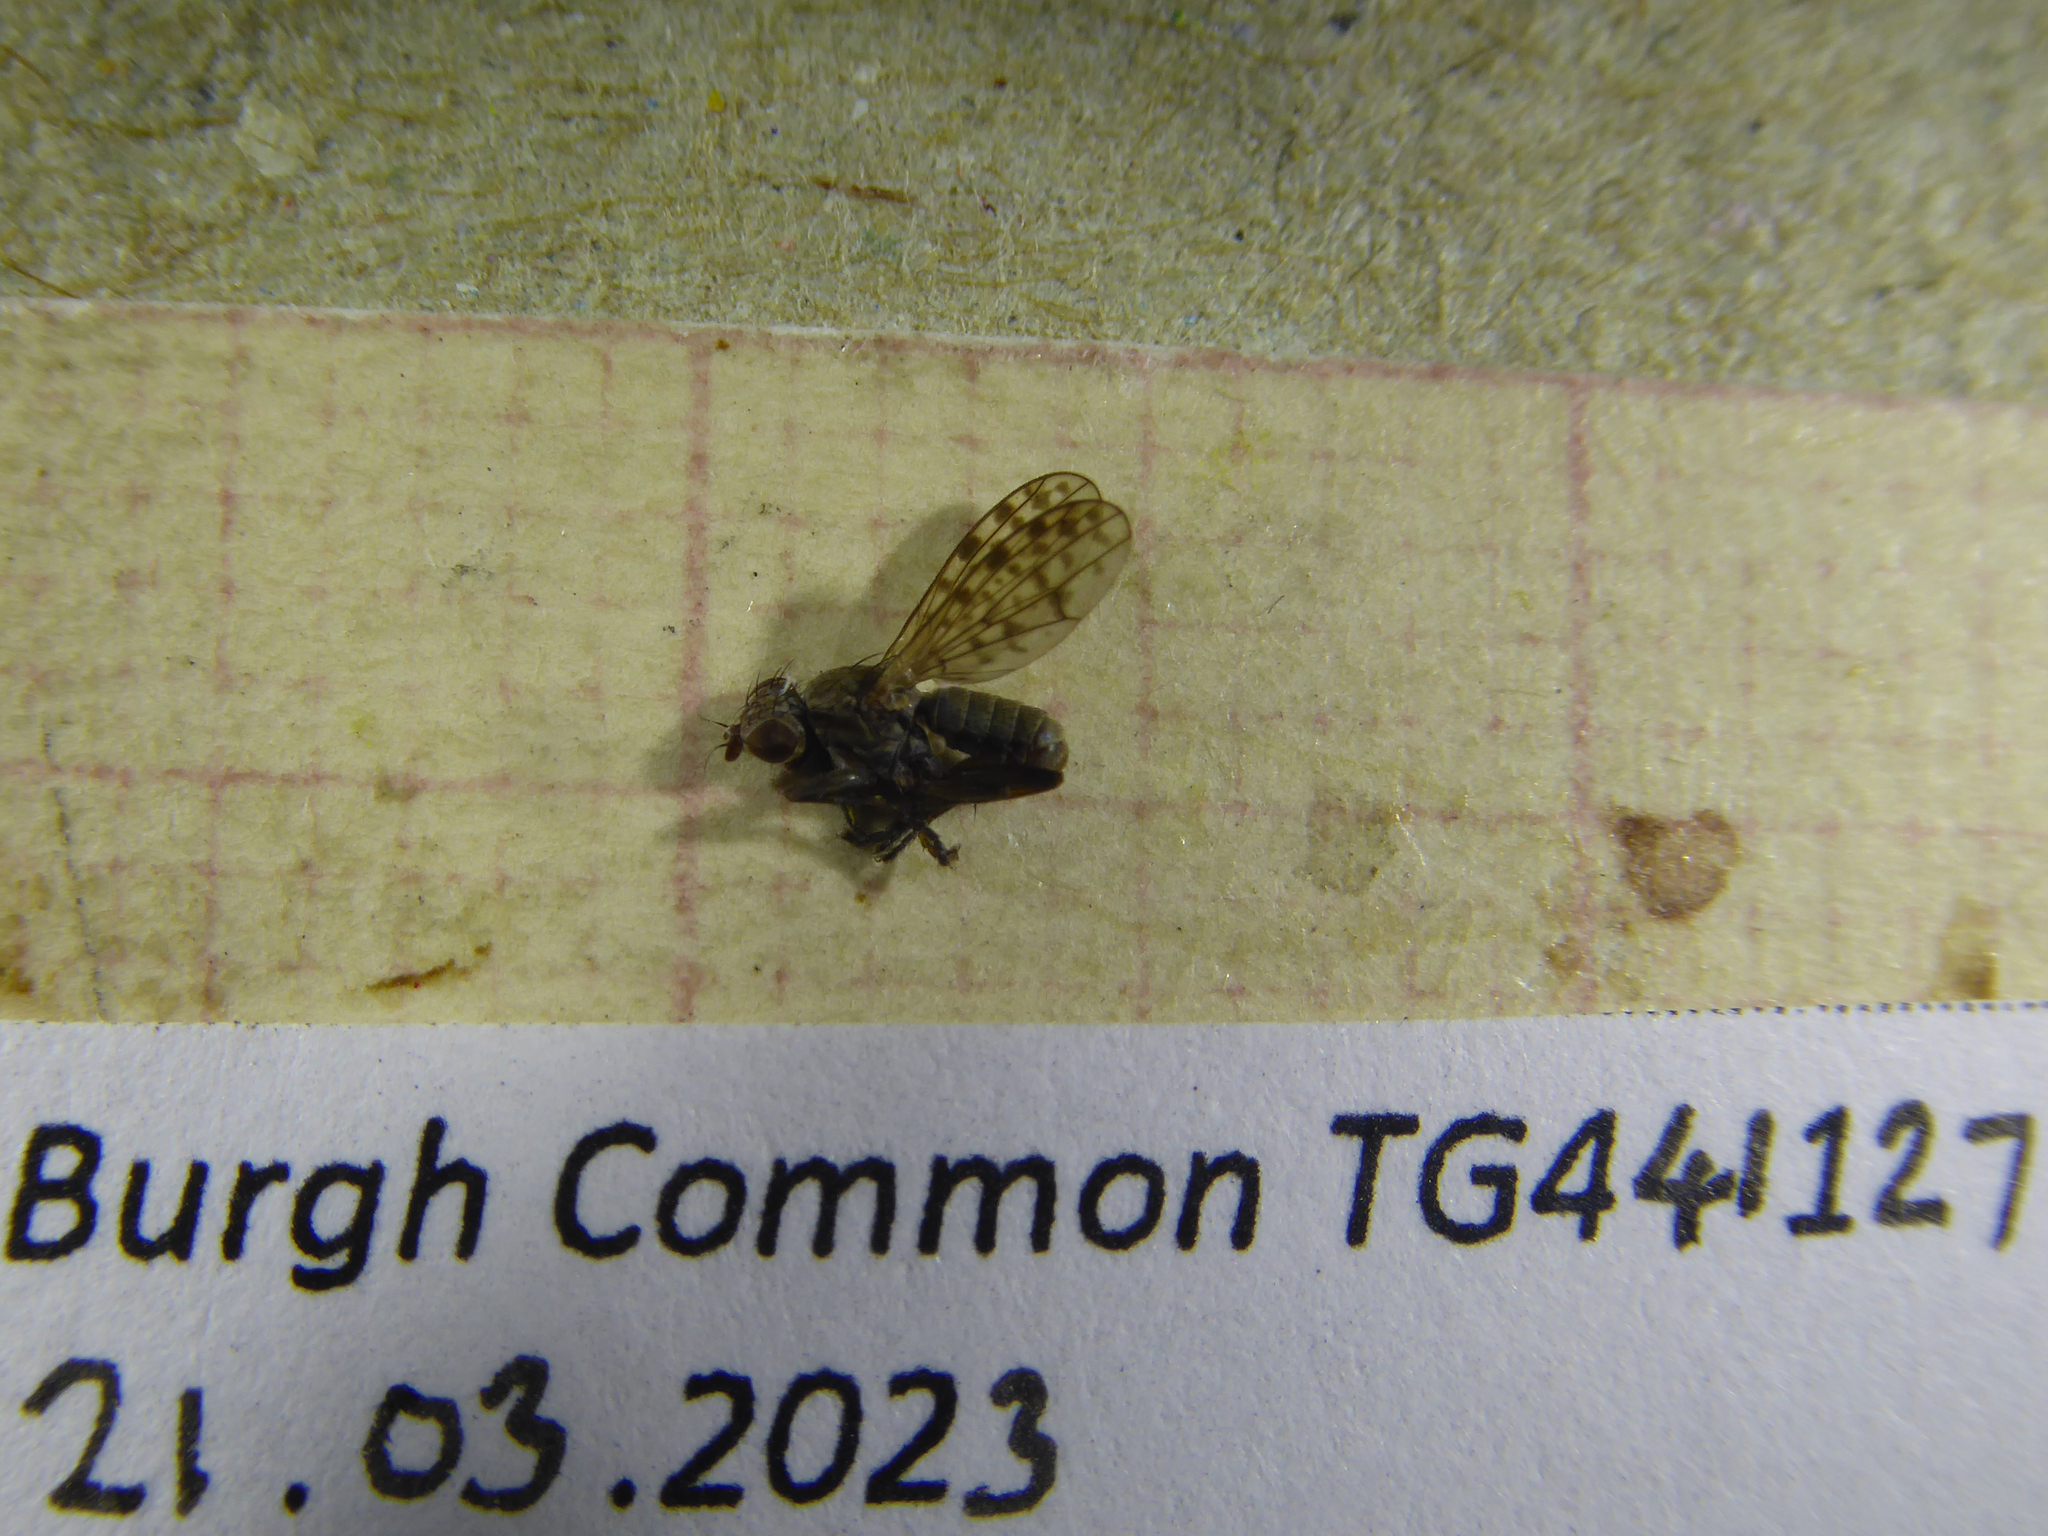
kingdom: Animalia
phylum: Arthropoda
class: Insecta
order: Diptera
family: Sciomyzidae
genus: Pherbellia
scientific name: Pherbellia schoenherri
